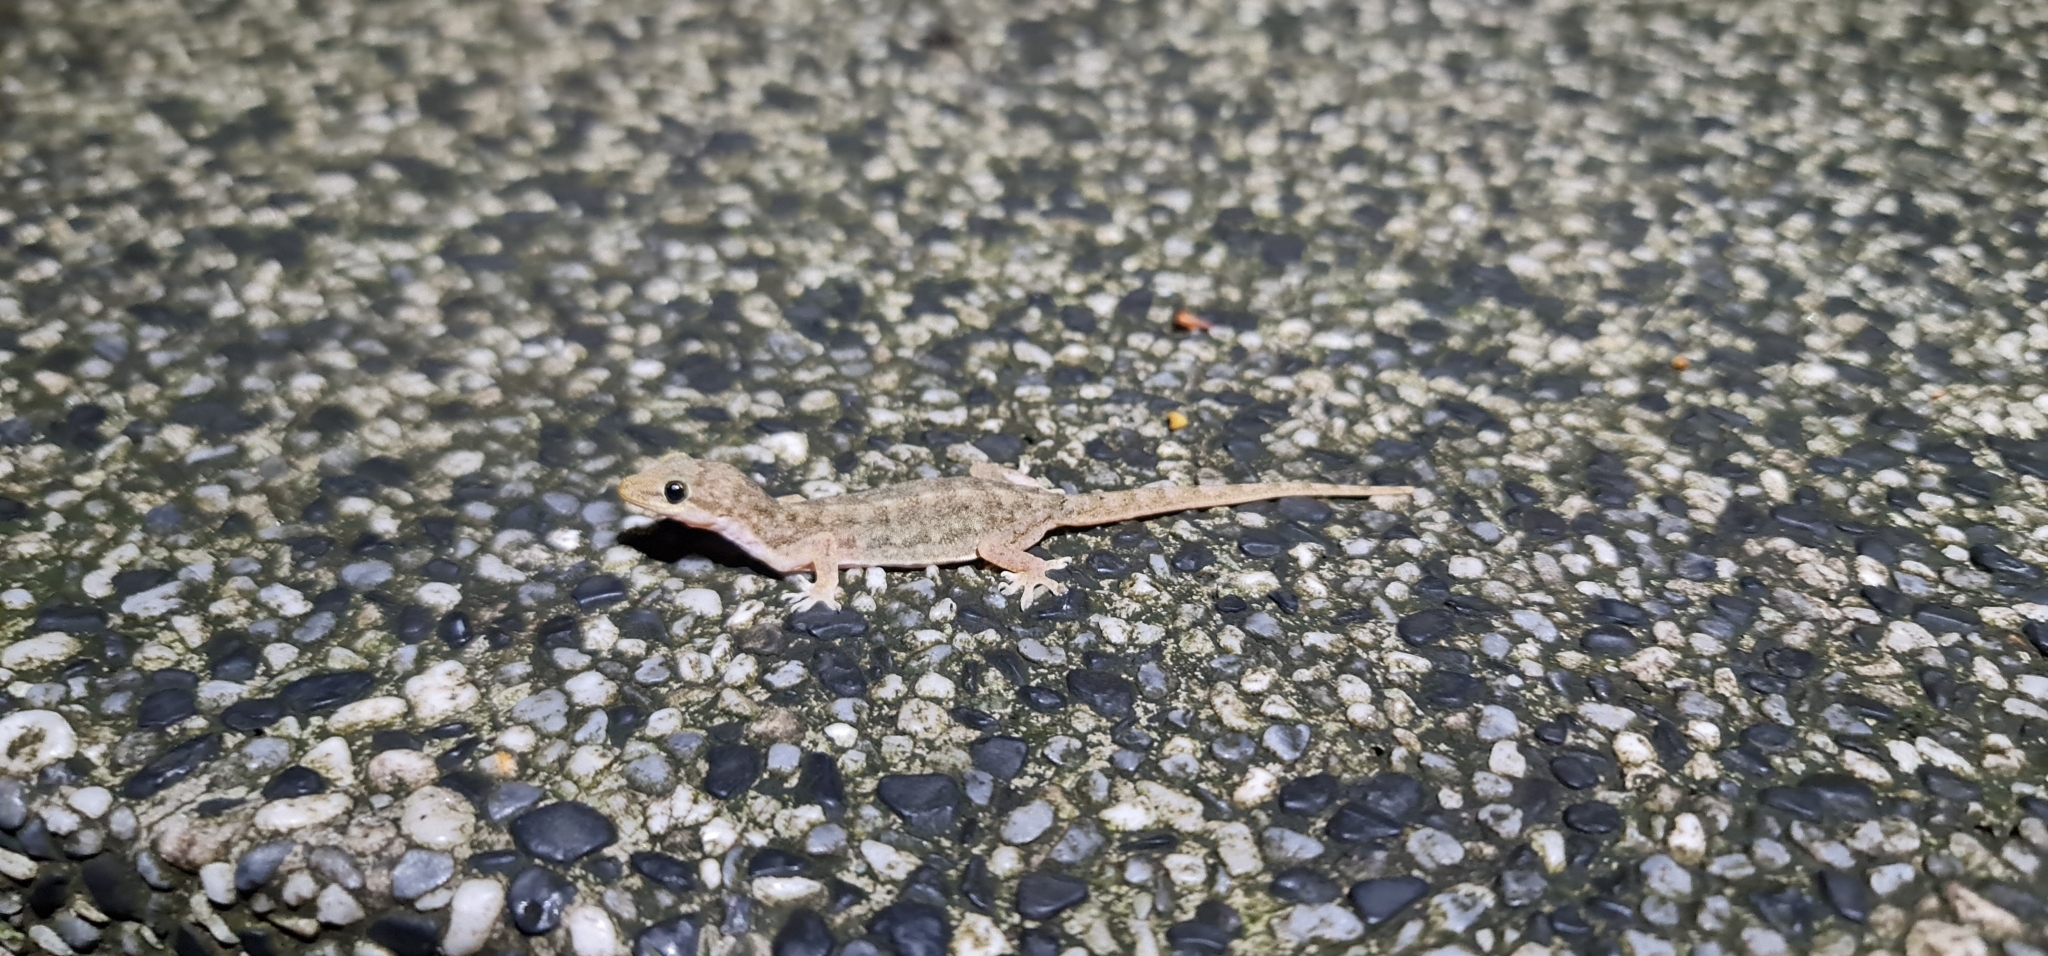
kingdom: Animalia
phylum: Chordata
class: Squamata
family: Gekkonidae
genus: Hemidactylus
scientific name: Hemidactylus bowringii
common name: Oriental leaf-toed gecko
